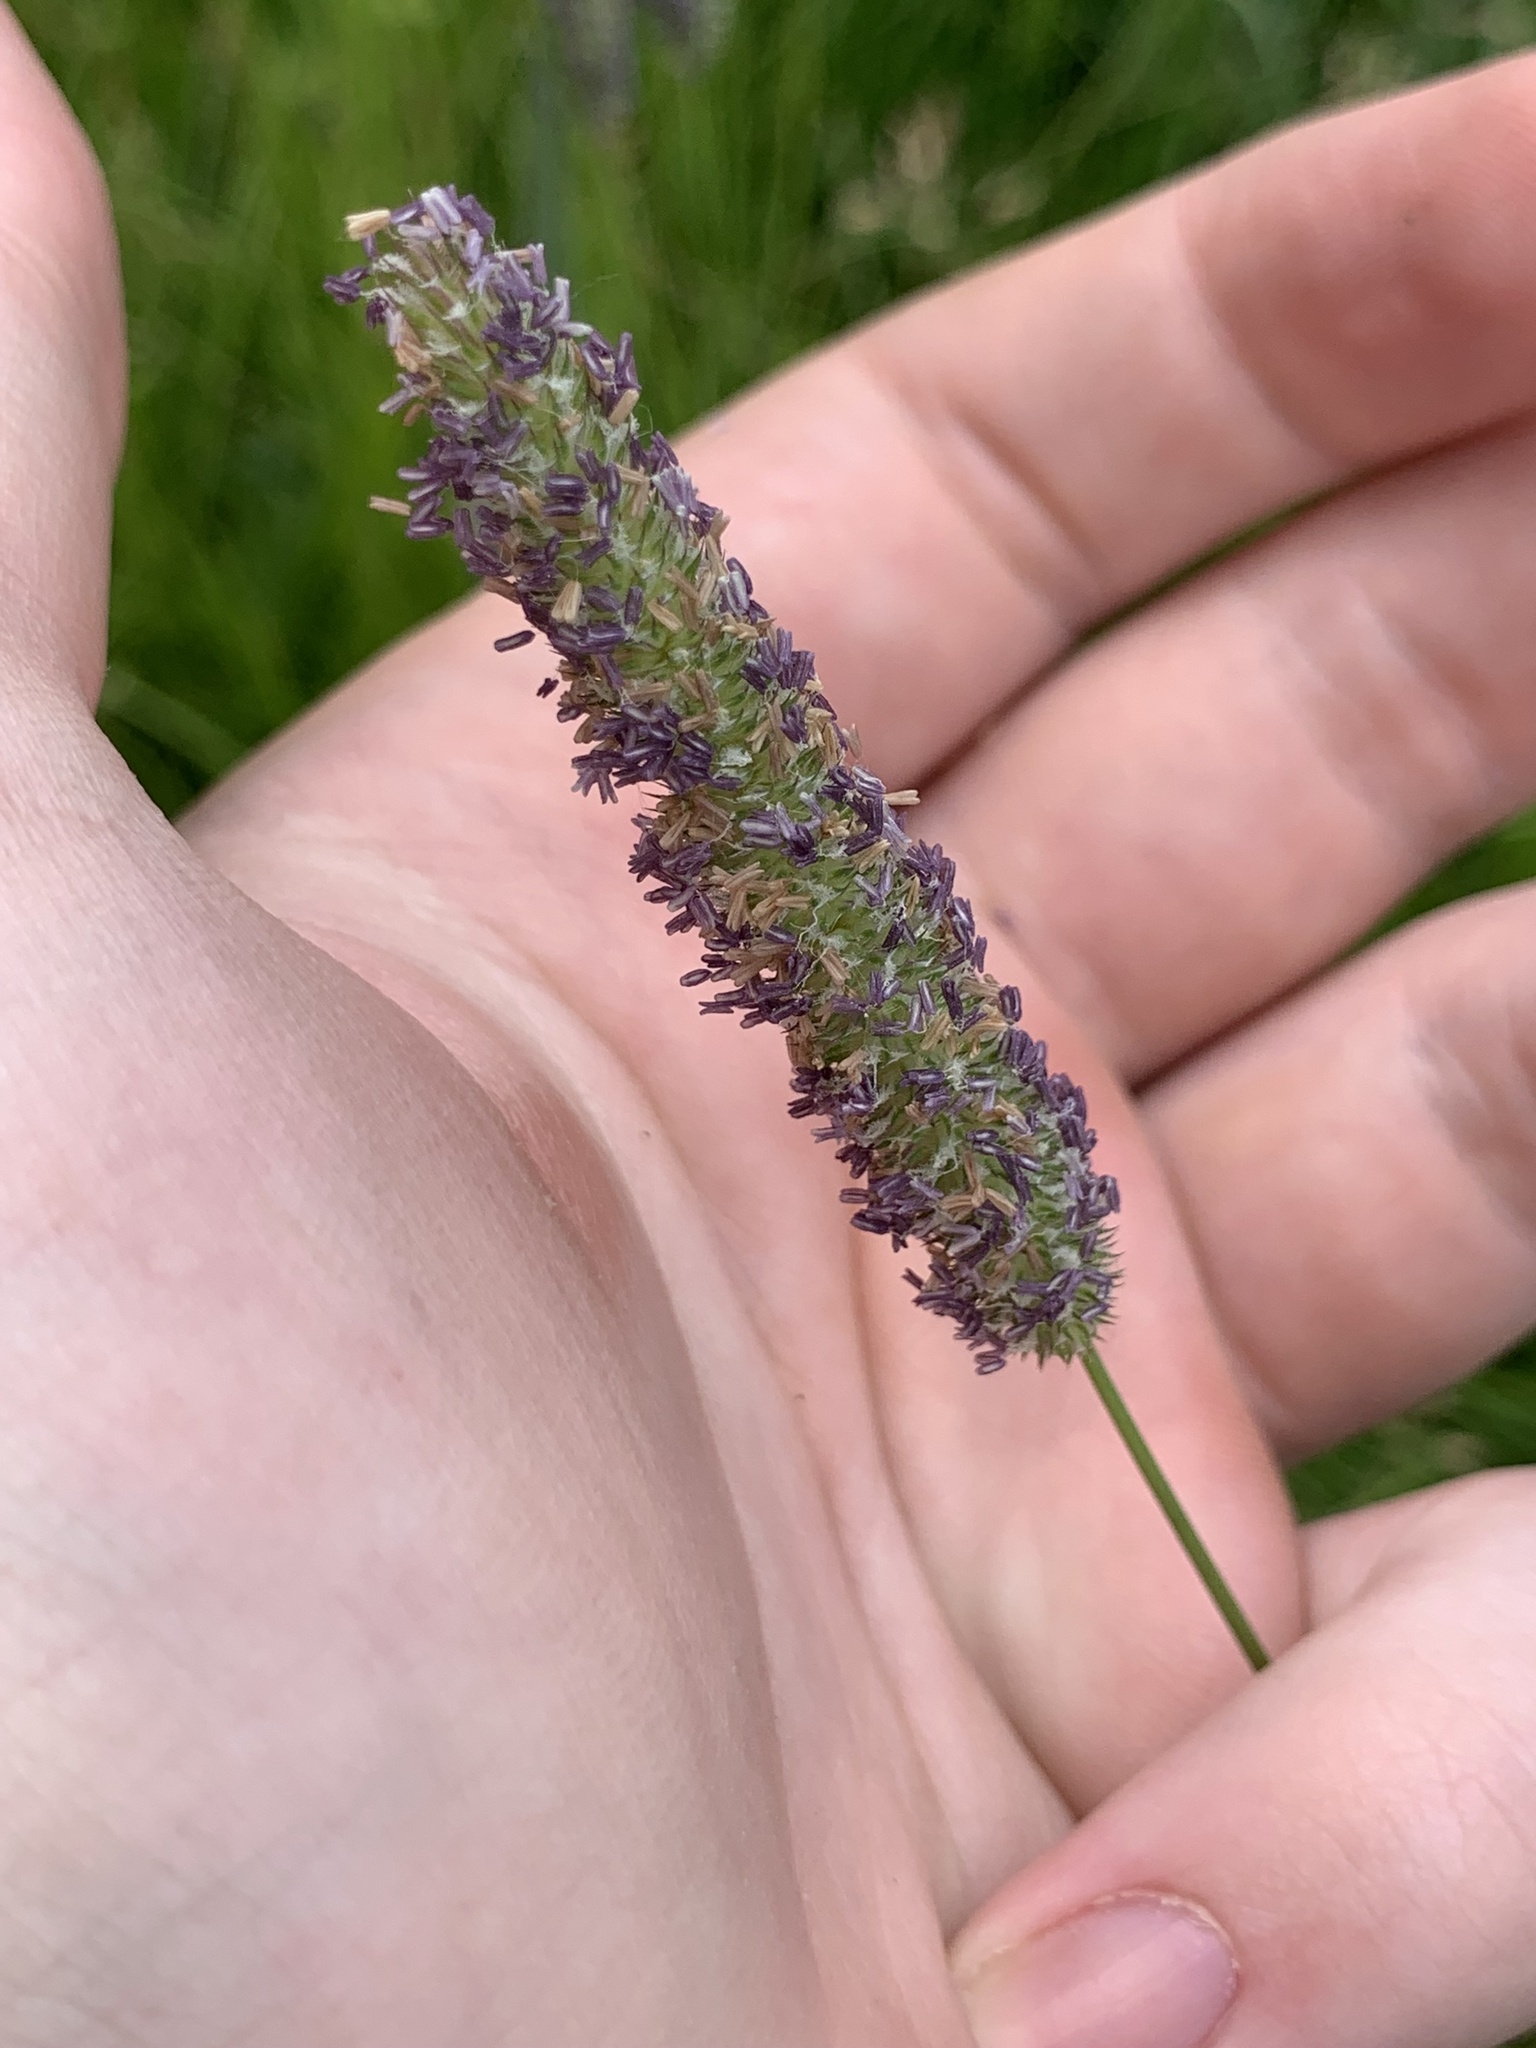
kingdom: Plantae
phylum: Tracheophyta
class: Liliopsida
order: Poales
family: Poaceae
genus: Phleum
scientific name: Phleum pratense
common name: Timothy grass
